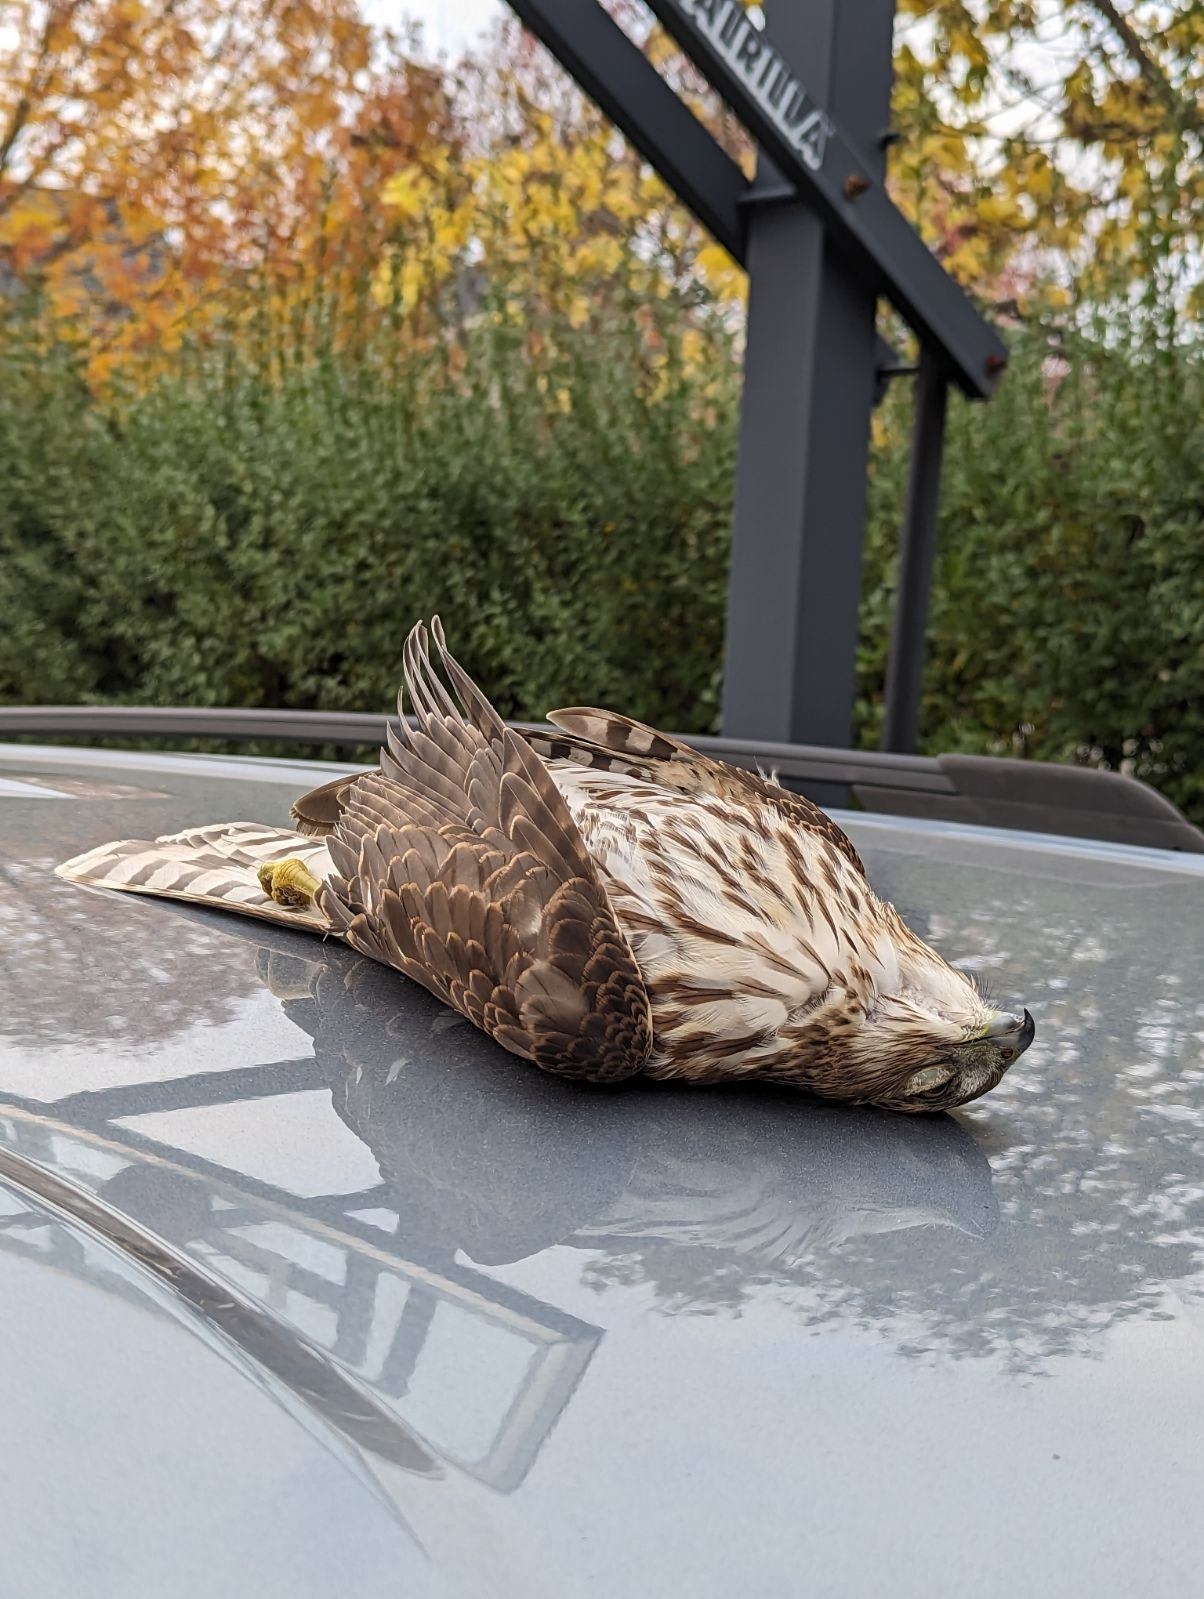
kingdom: Animalia
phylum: Chordata
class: Aves
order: Accipitriformes
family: Accipitridae
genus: Accipiter
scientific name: Accipiter cooperii
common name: Cooper's hawk
